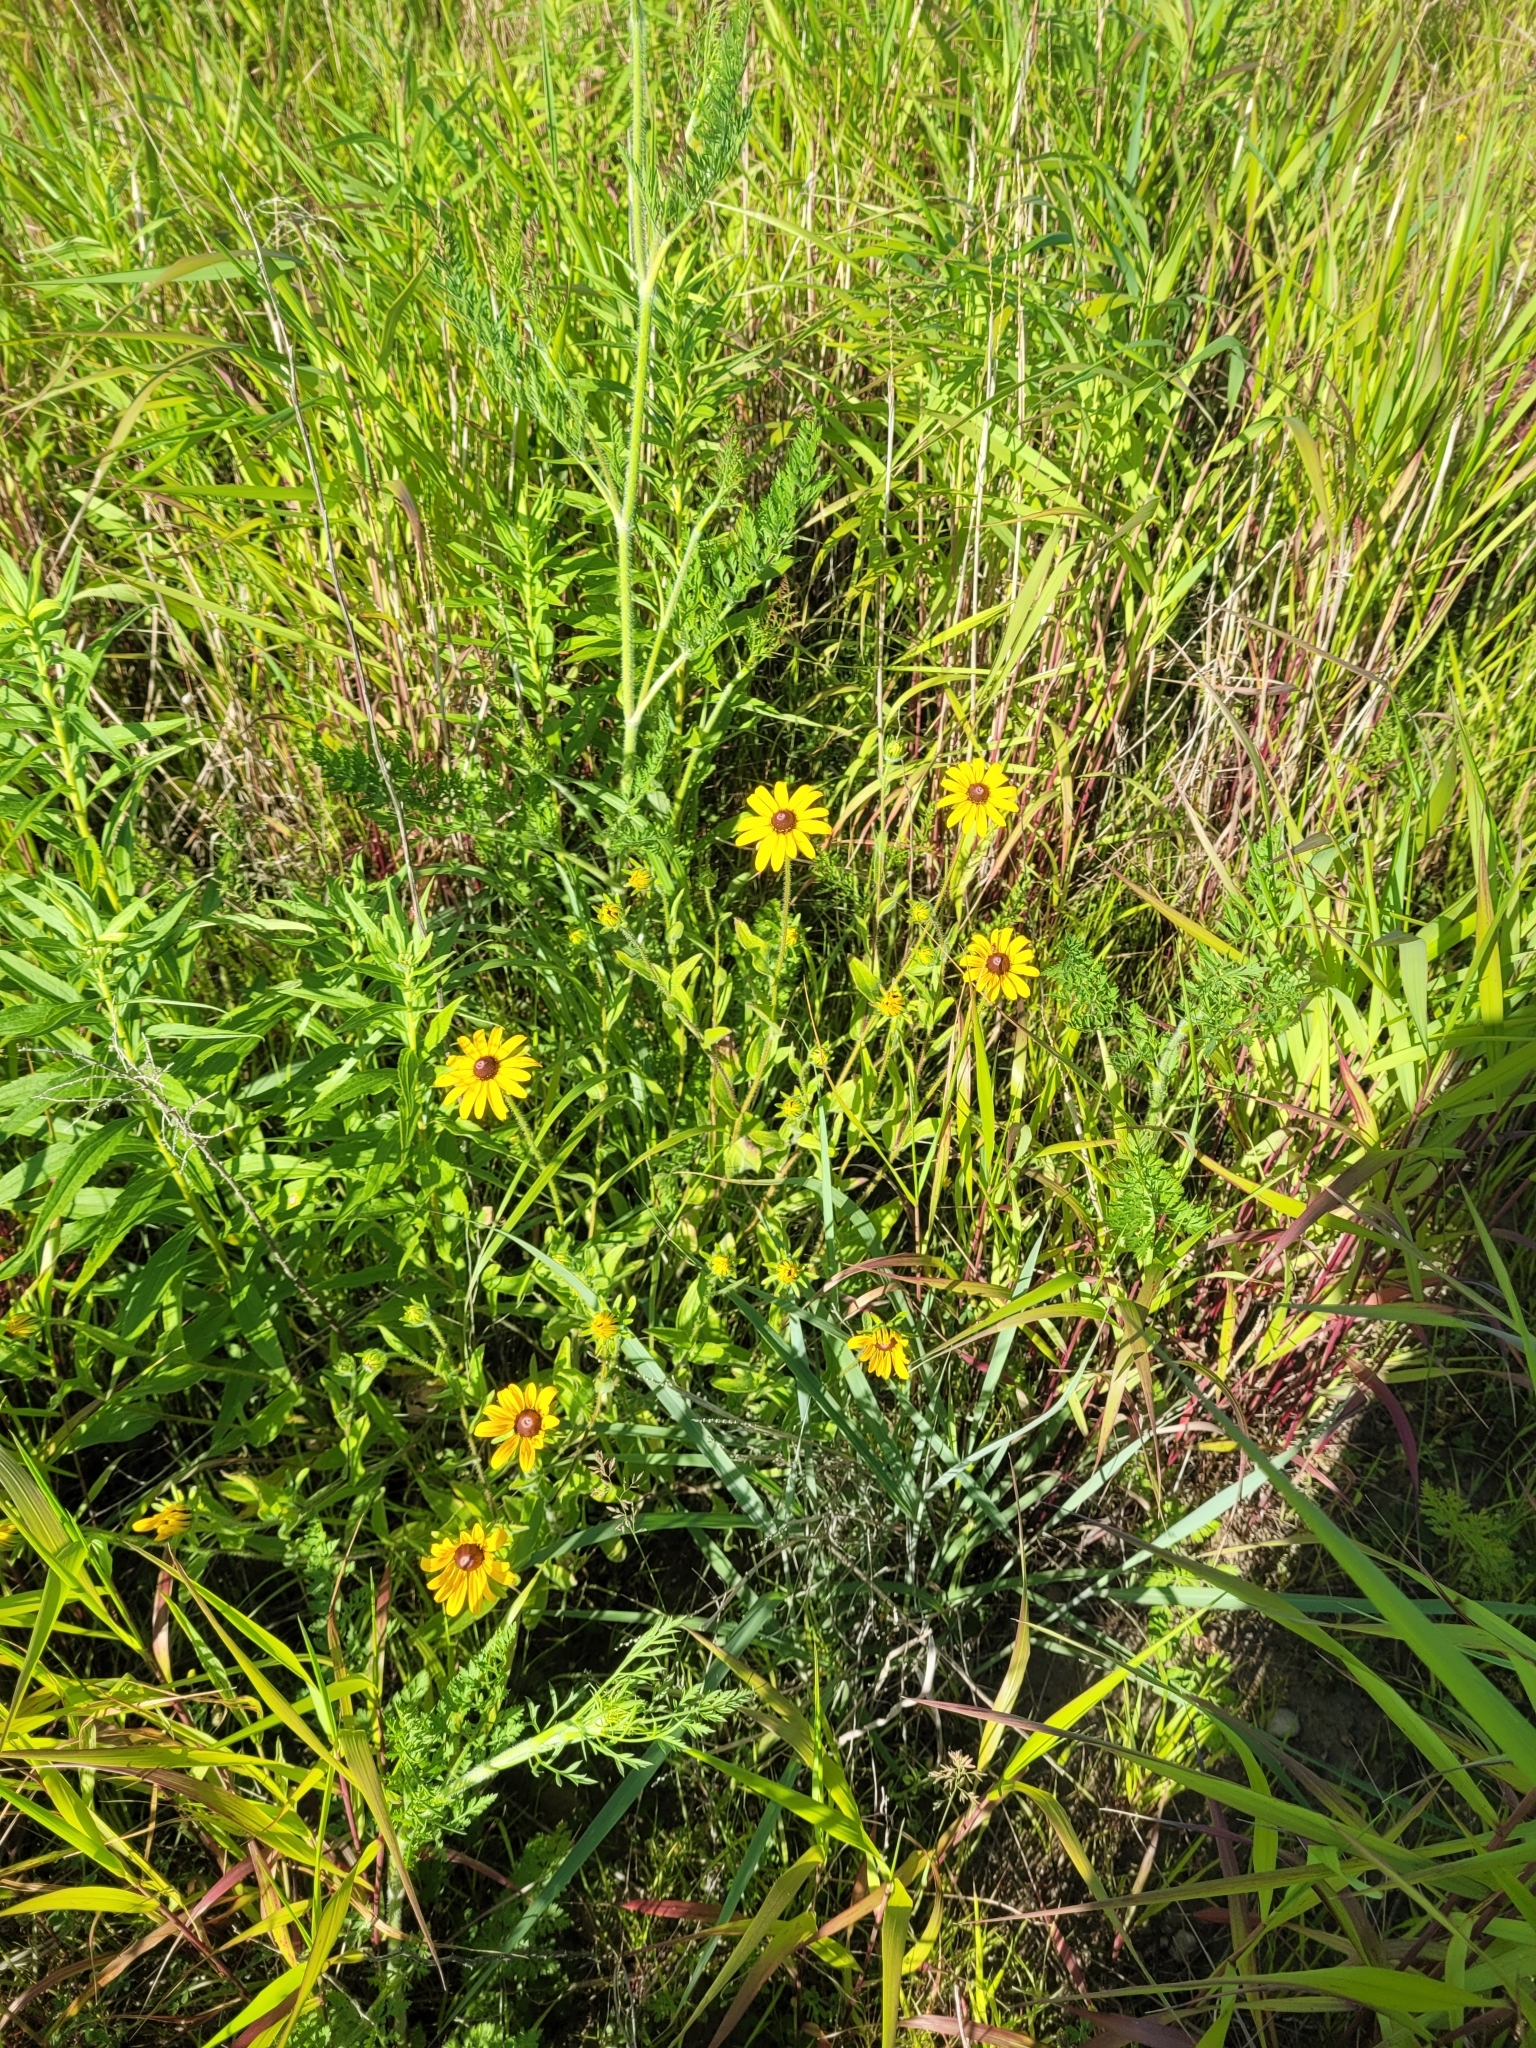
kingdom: Plantae
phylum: Tracheophyta
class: Magnoliopsida
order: Asterales
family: Asteraceae
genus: Rudbeckia
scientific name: Rudbeckia hirta
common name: Black-eyed-susan
